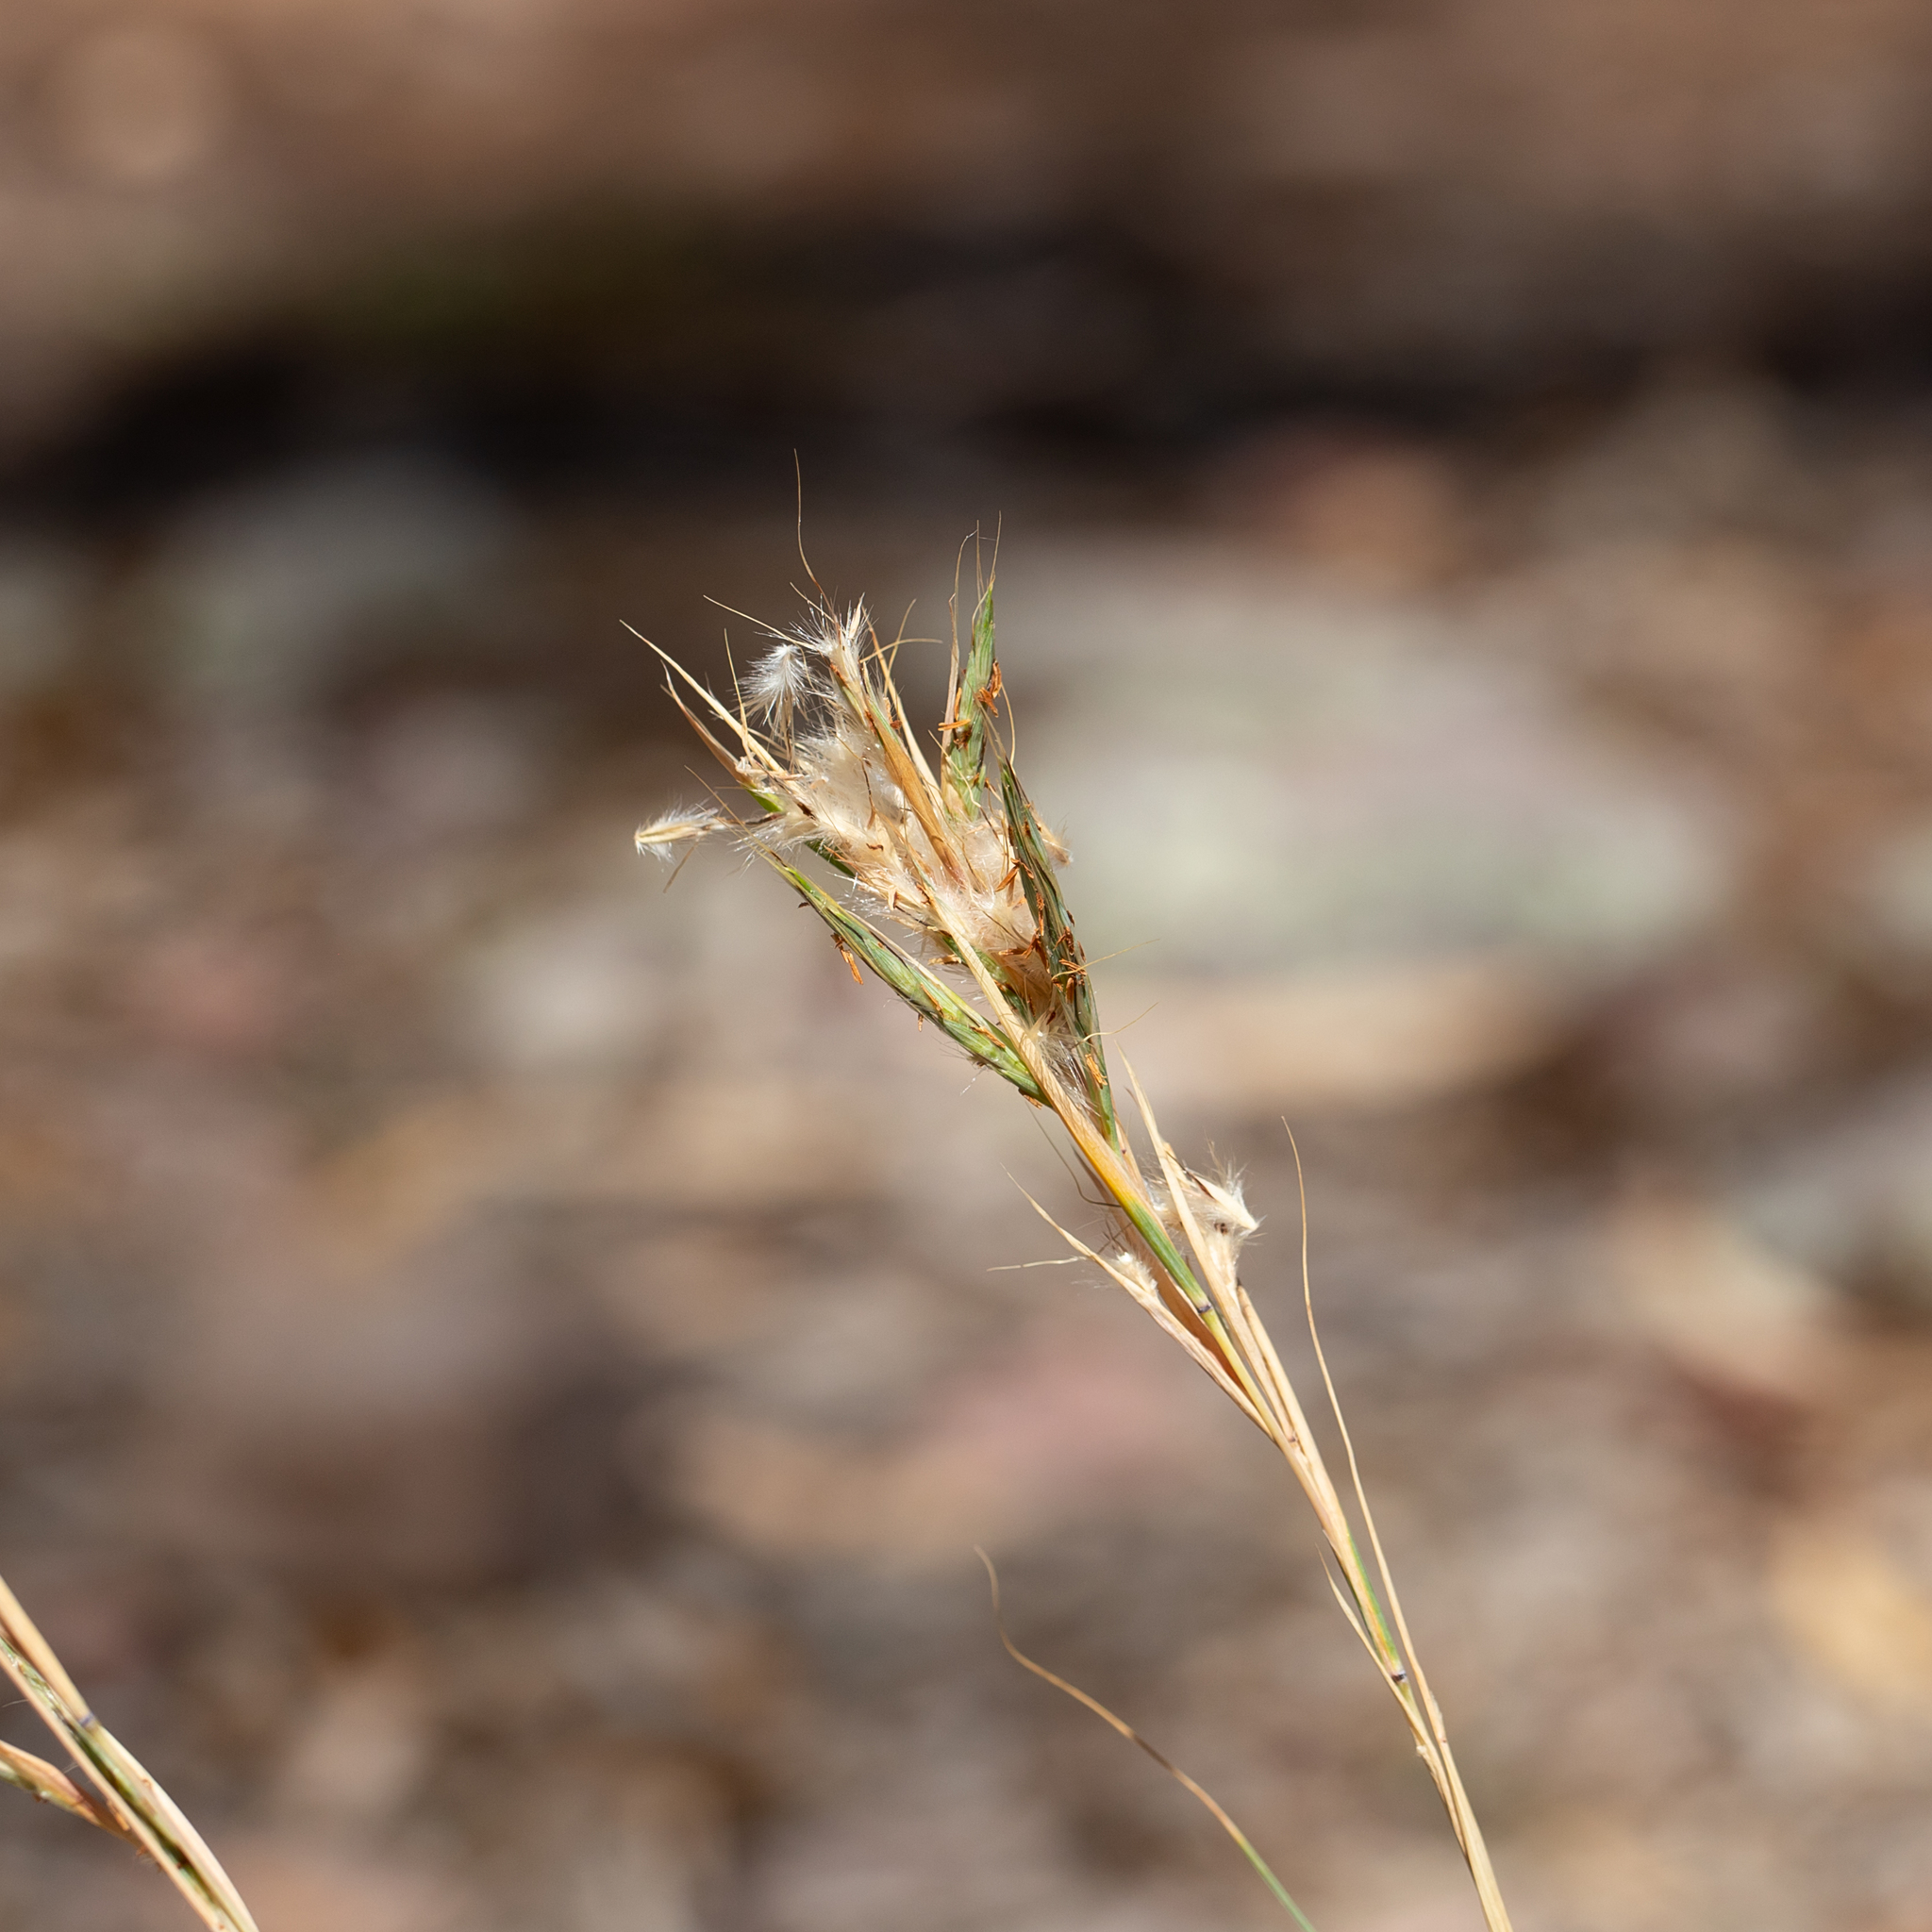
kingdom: Plantae
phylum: Tracheophyta
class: Liliopsida
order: Poales
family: Poaceae
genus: Cymbopogon
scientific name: Cymbopogon ambiguus
